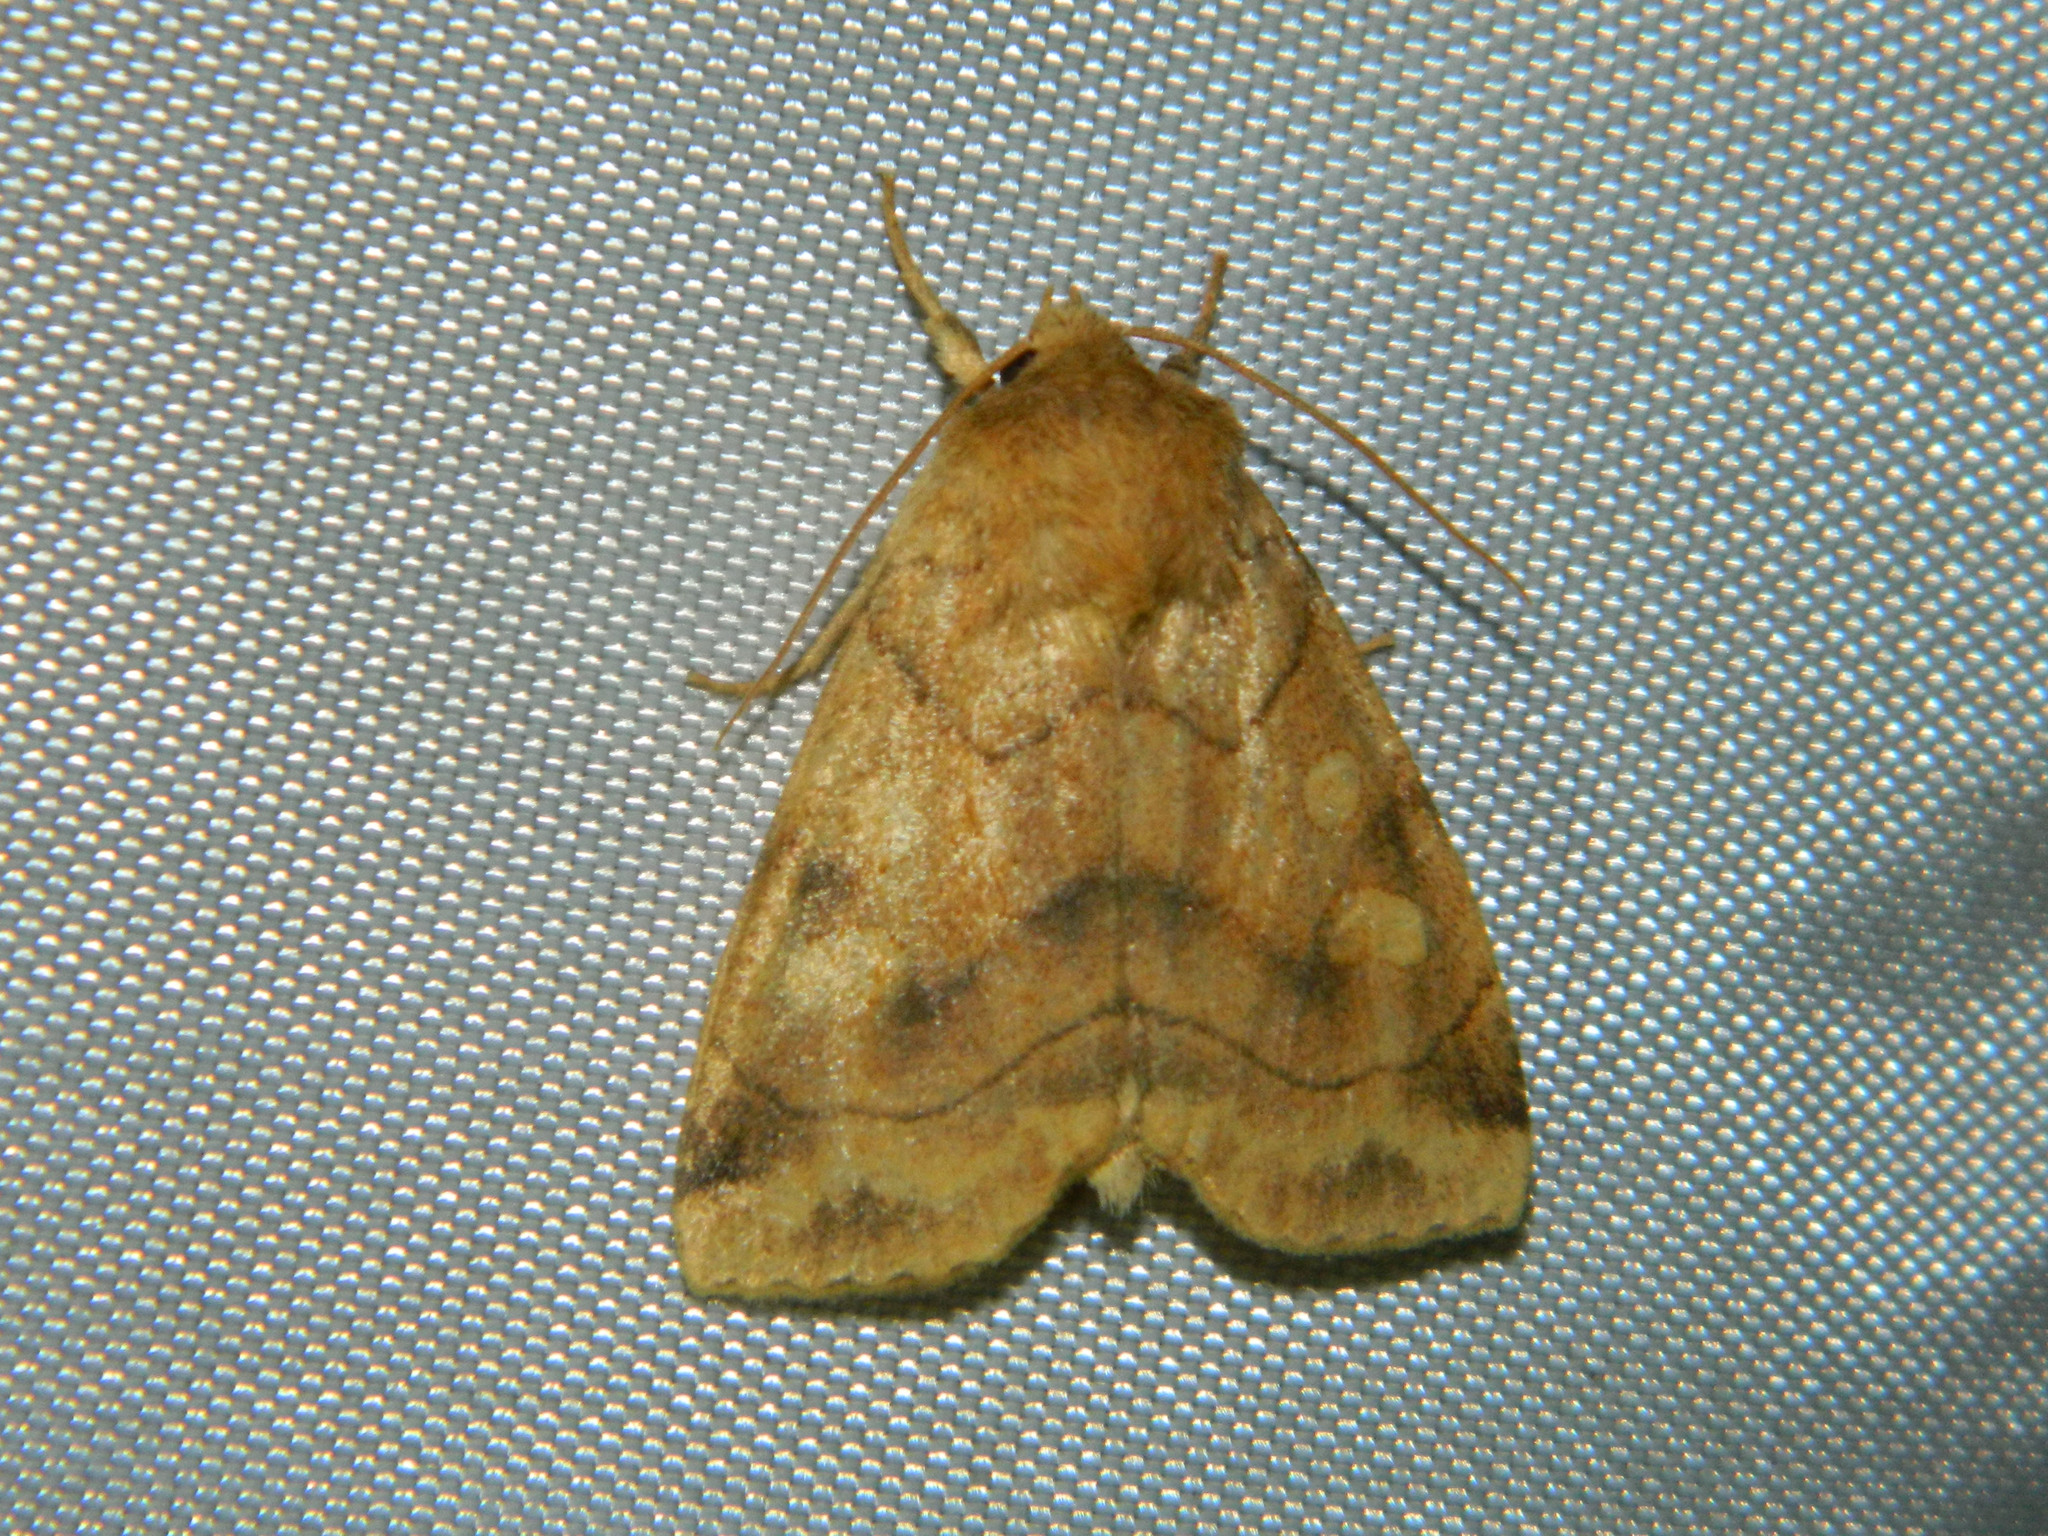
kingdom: Animalia
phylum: Arthropoda
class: Insecta
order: Lepidoptera
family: Noctuidae
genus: Enargia
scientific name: Enargia decolor
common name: Aspen twoleaf tier moth
